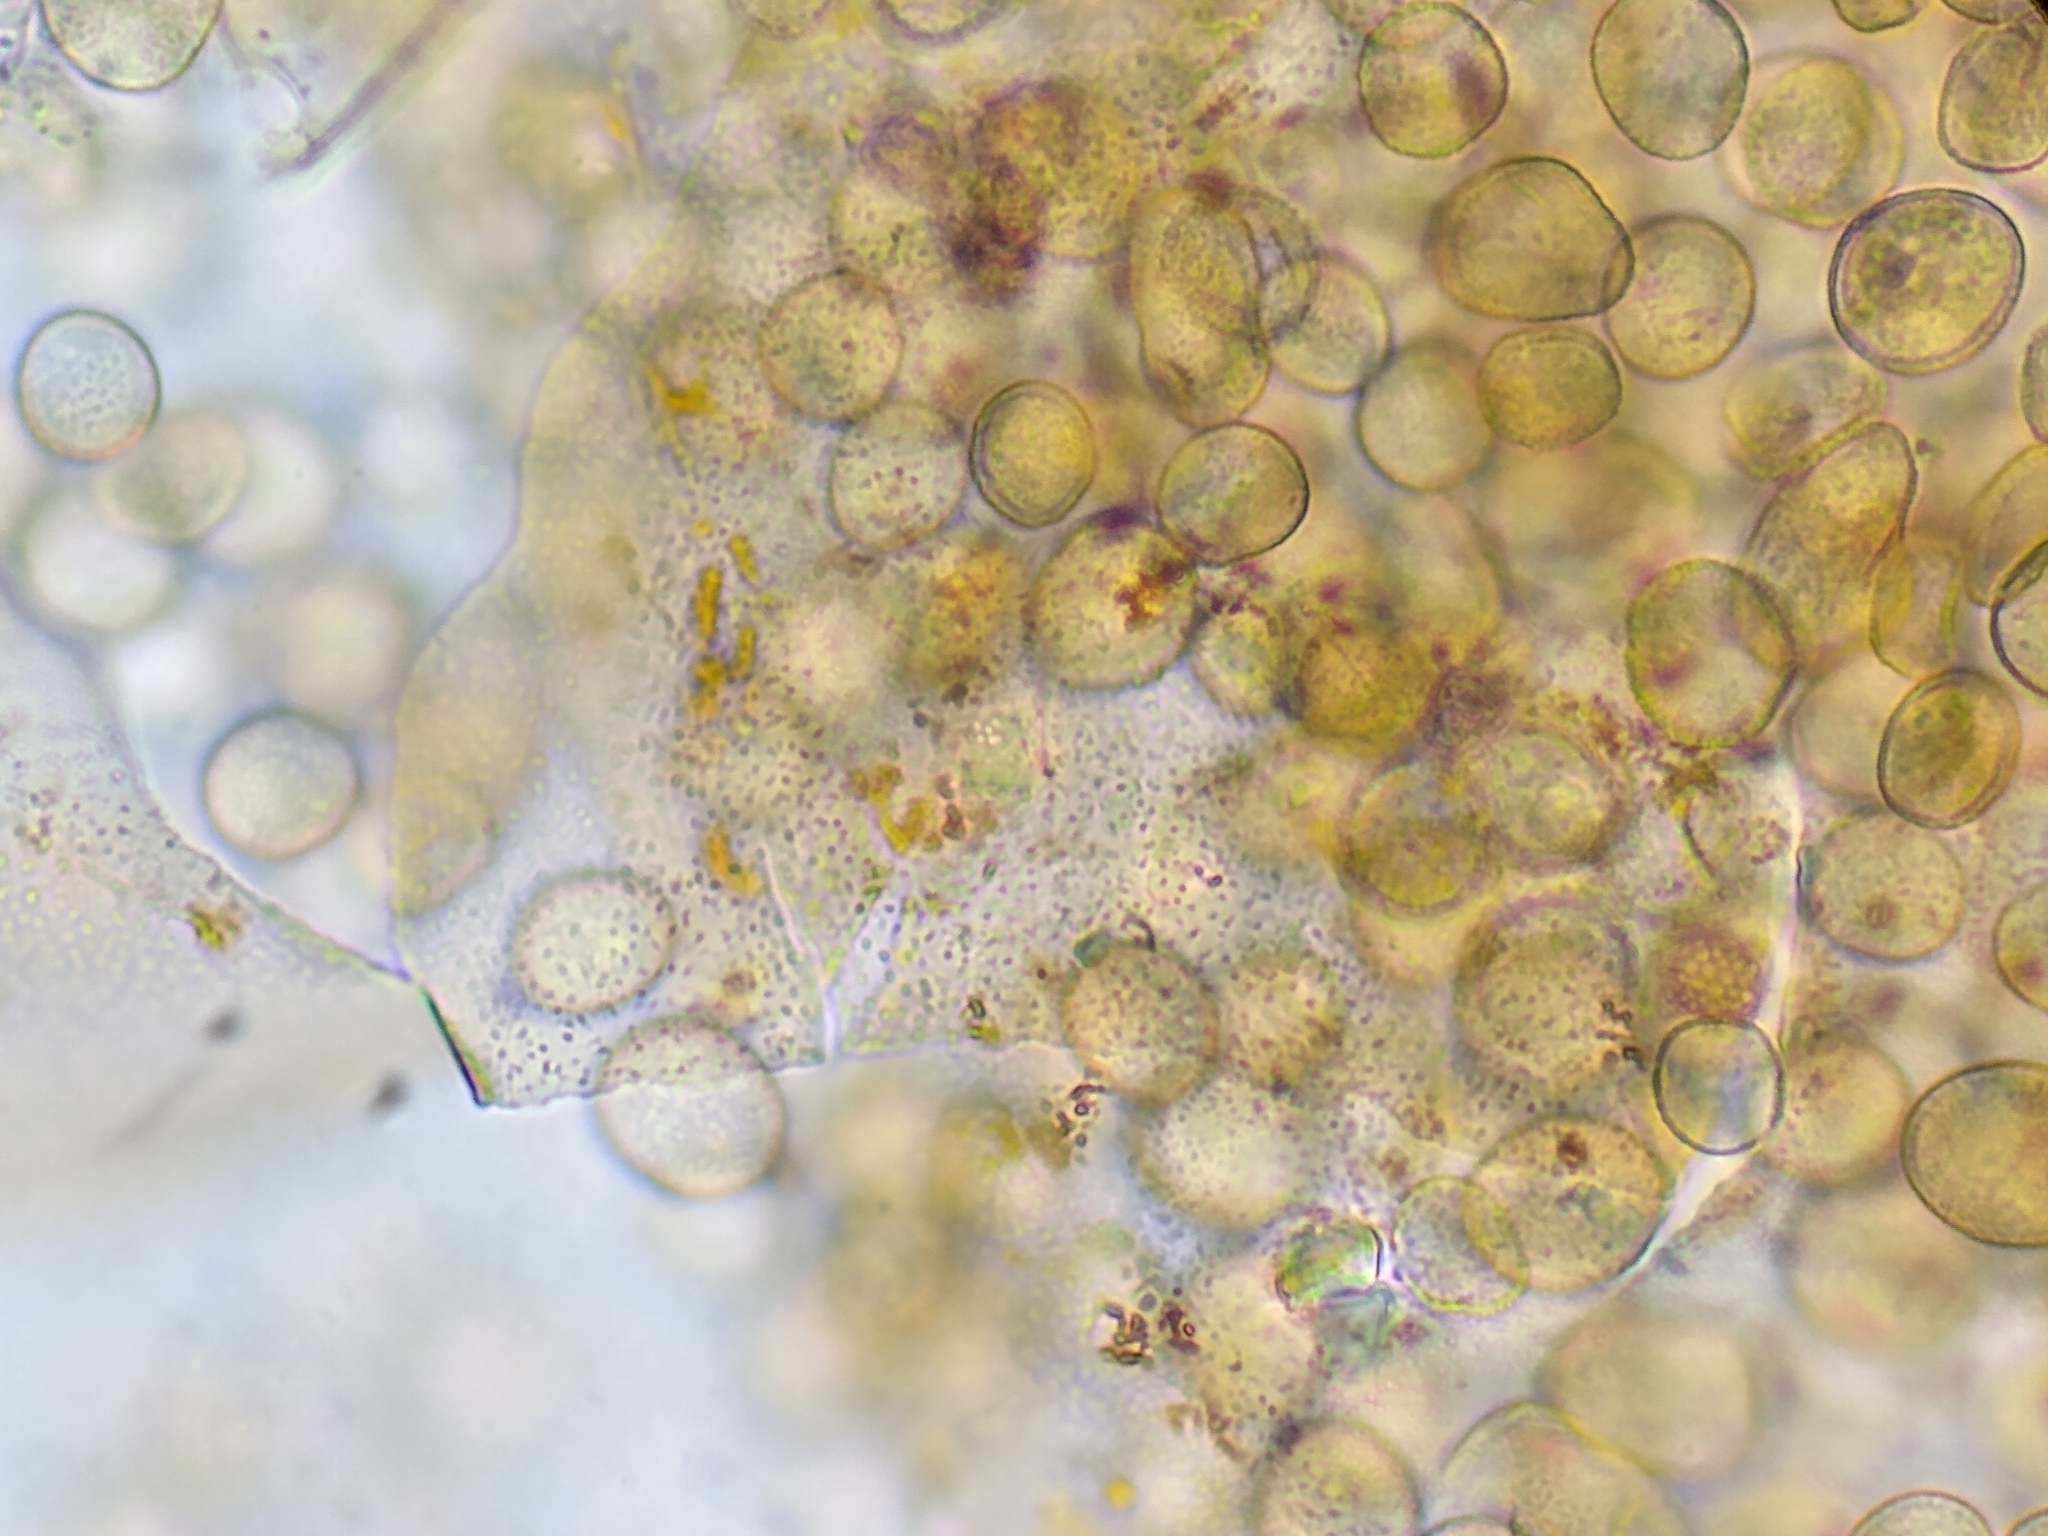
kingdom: Protozoa
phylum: Mycetozoa
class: Myxomycetes
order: Trichiales
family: Dianemataceae
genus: Calomyxa
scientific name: Calomyxa metallica
